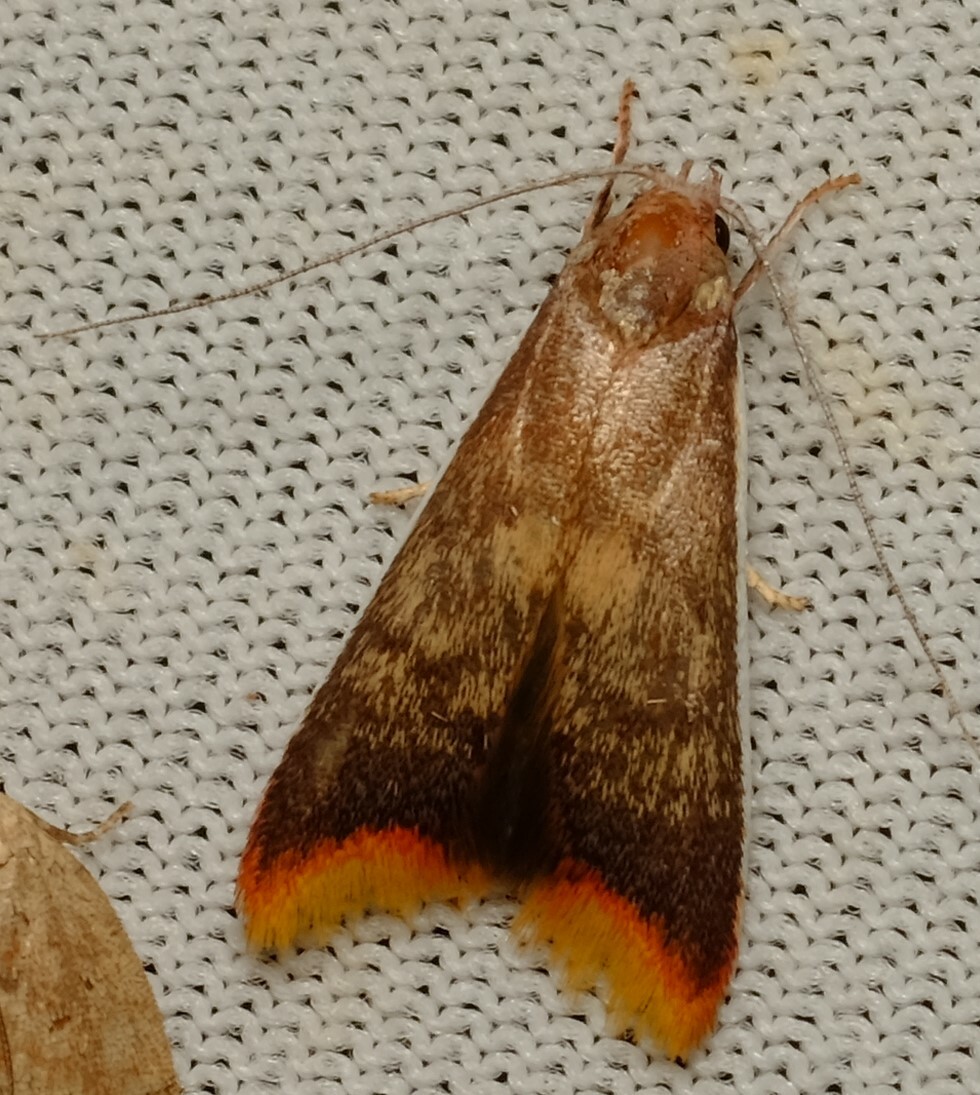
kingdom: Animalia
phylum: Arthropoda
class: Insecta
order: Lepidoptera
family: Oecophoridae
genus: Hemibela
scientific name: Hemibela callista
